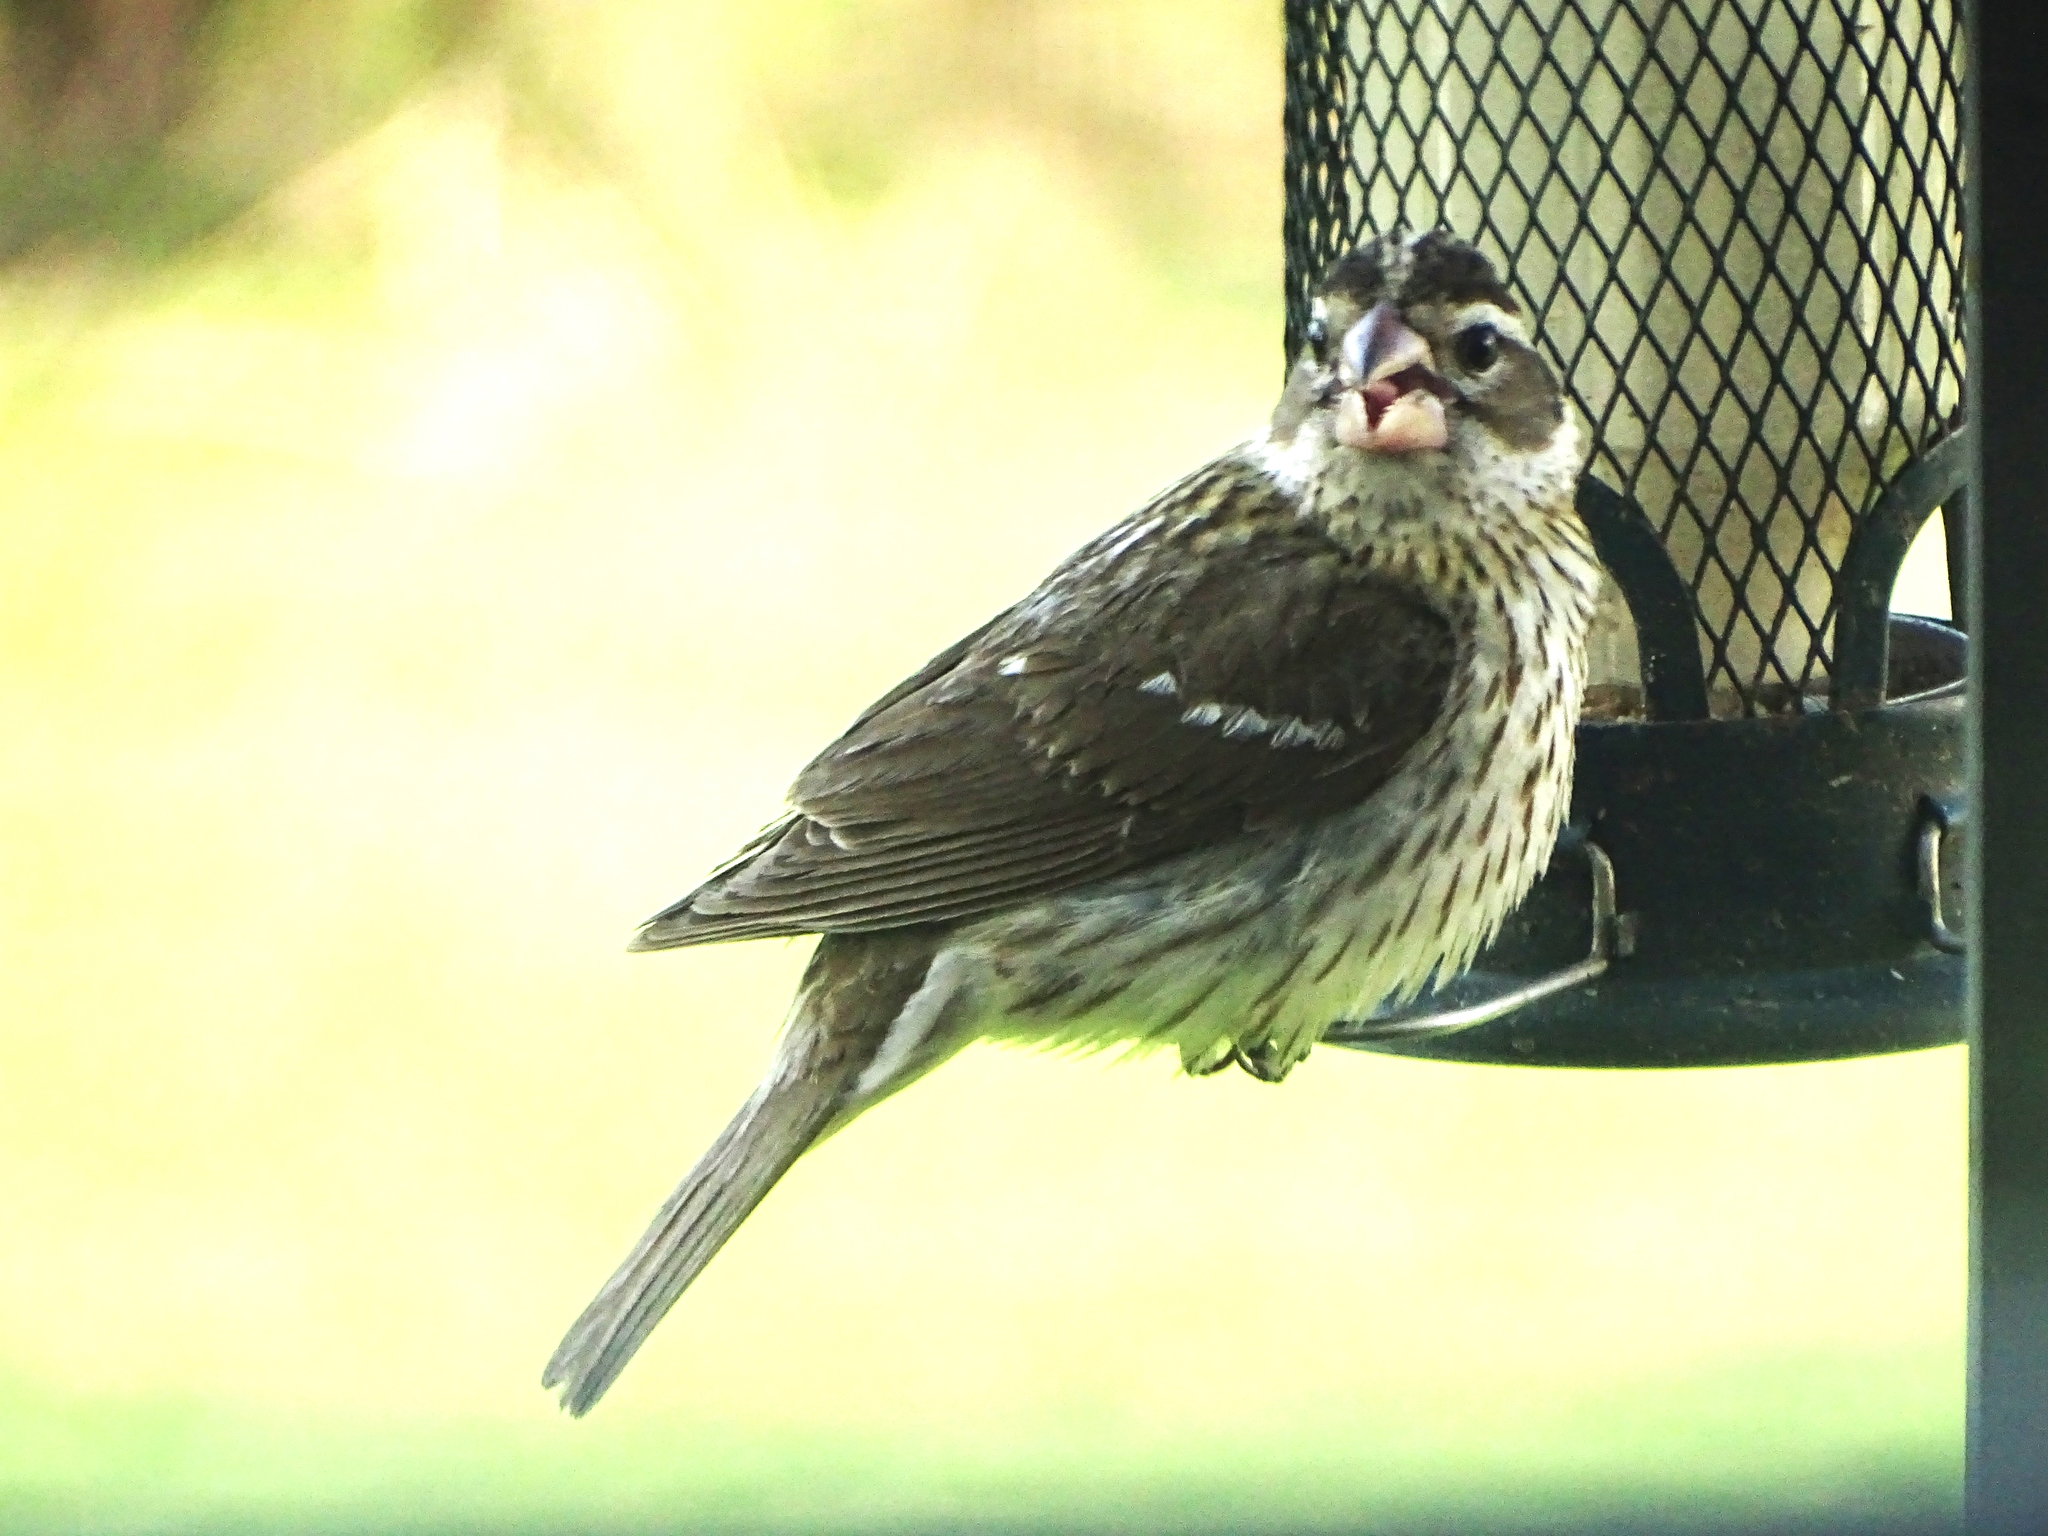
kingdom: Animalia
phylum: Chordata
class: Aves
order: Passeriformes
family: Cardinalidae
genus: Pheucticus
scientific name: Pheucticus ludovicianus
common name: Rose-breasted grosbeak
